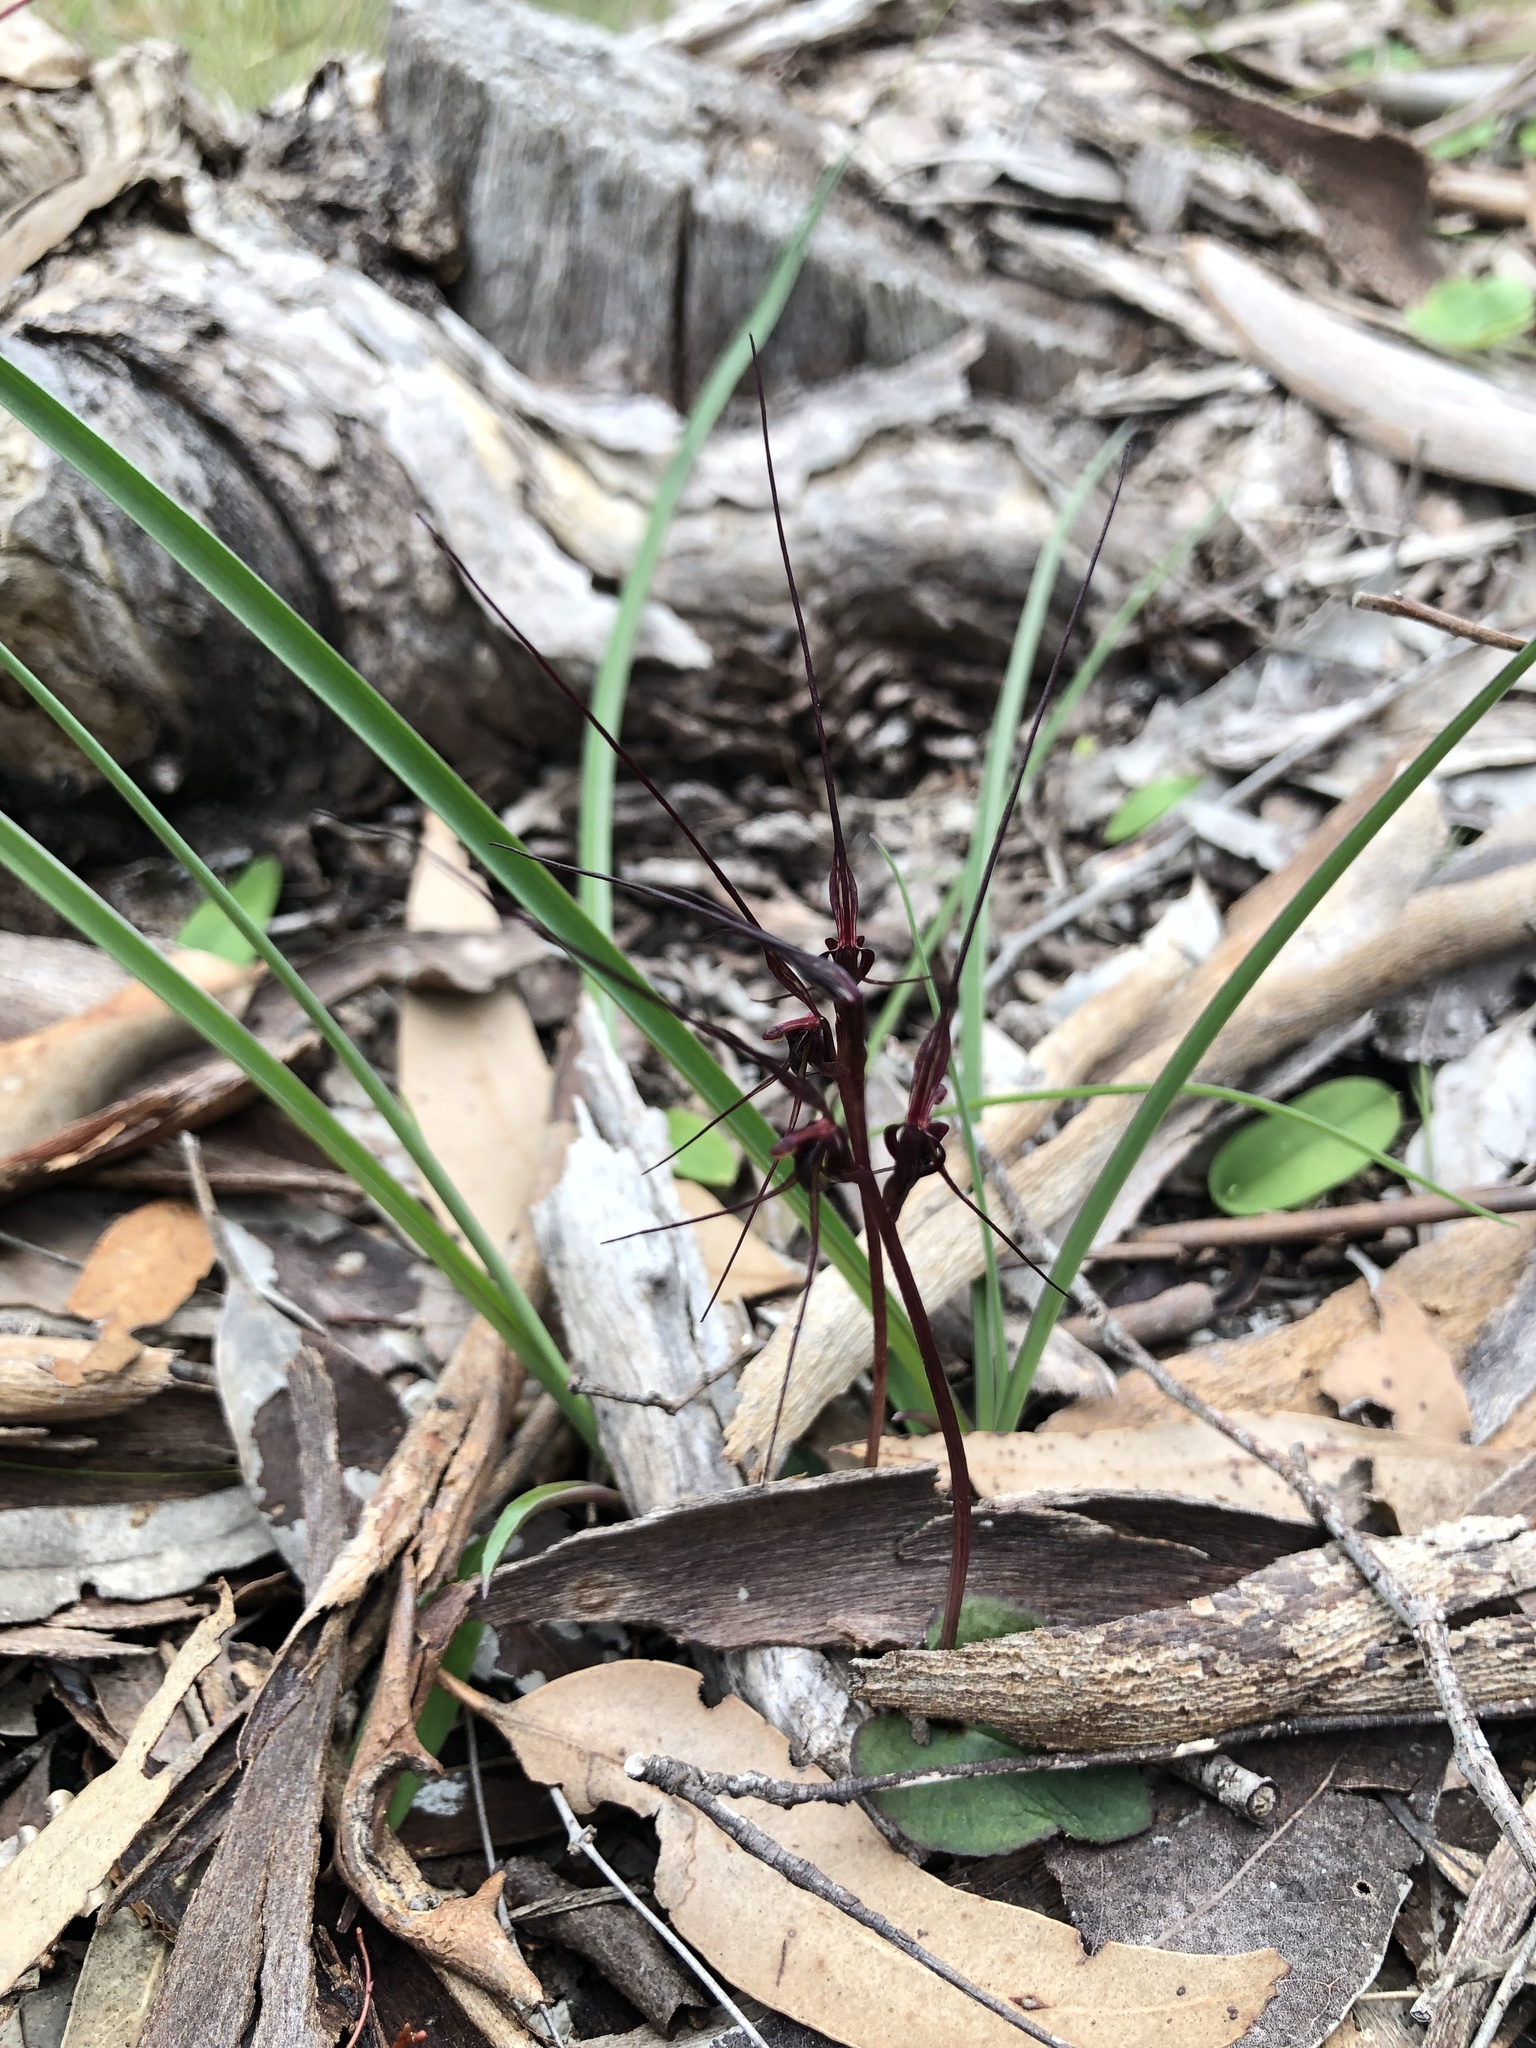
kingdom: Plantae
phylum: Tracheophyta
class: Liliopsida
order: Asparagales
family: Orchidaceae
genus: Acianthus
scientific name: Acianthus caudatus
